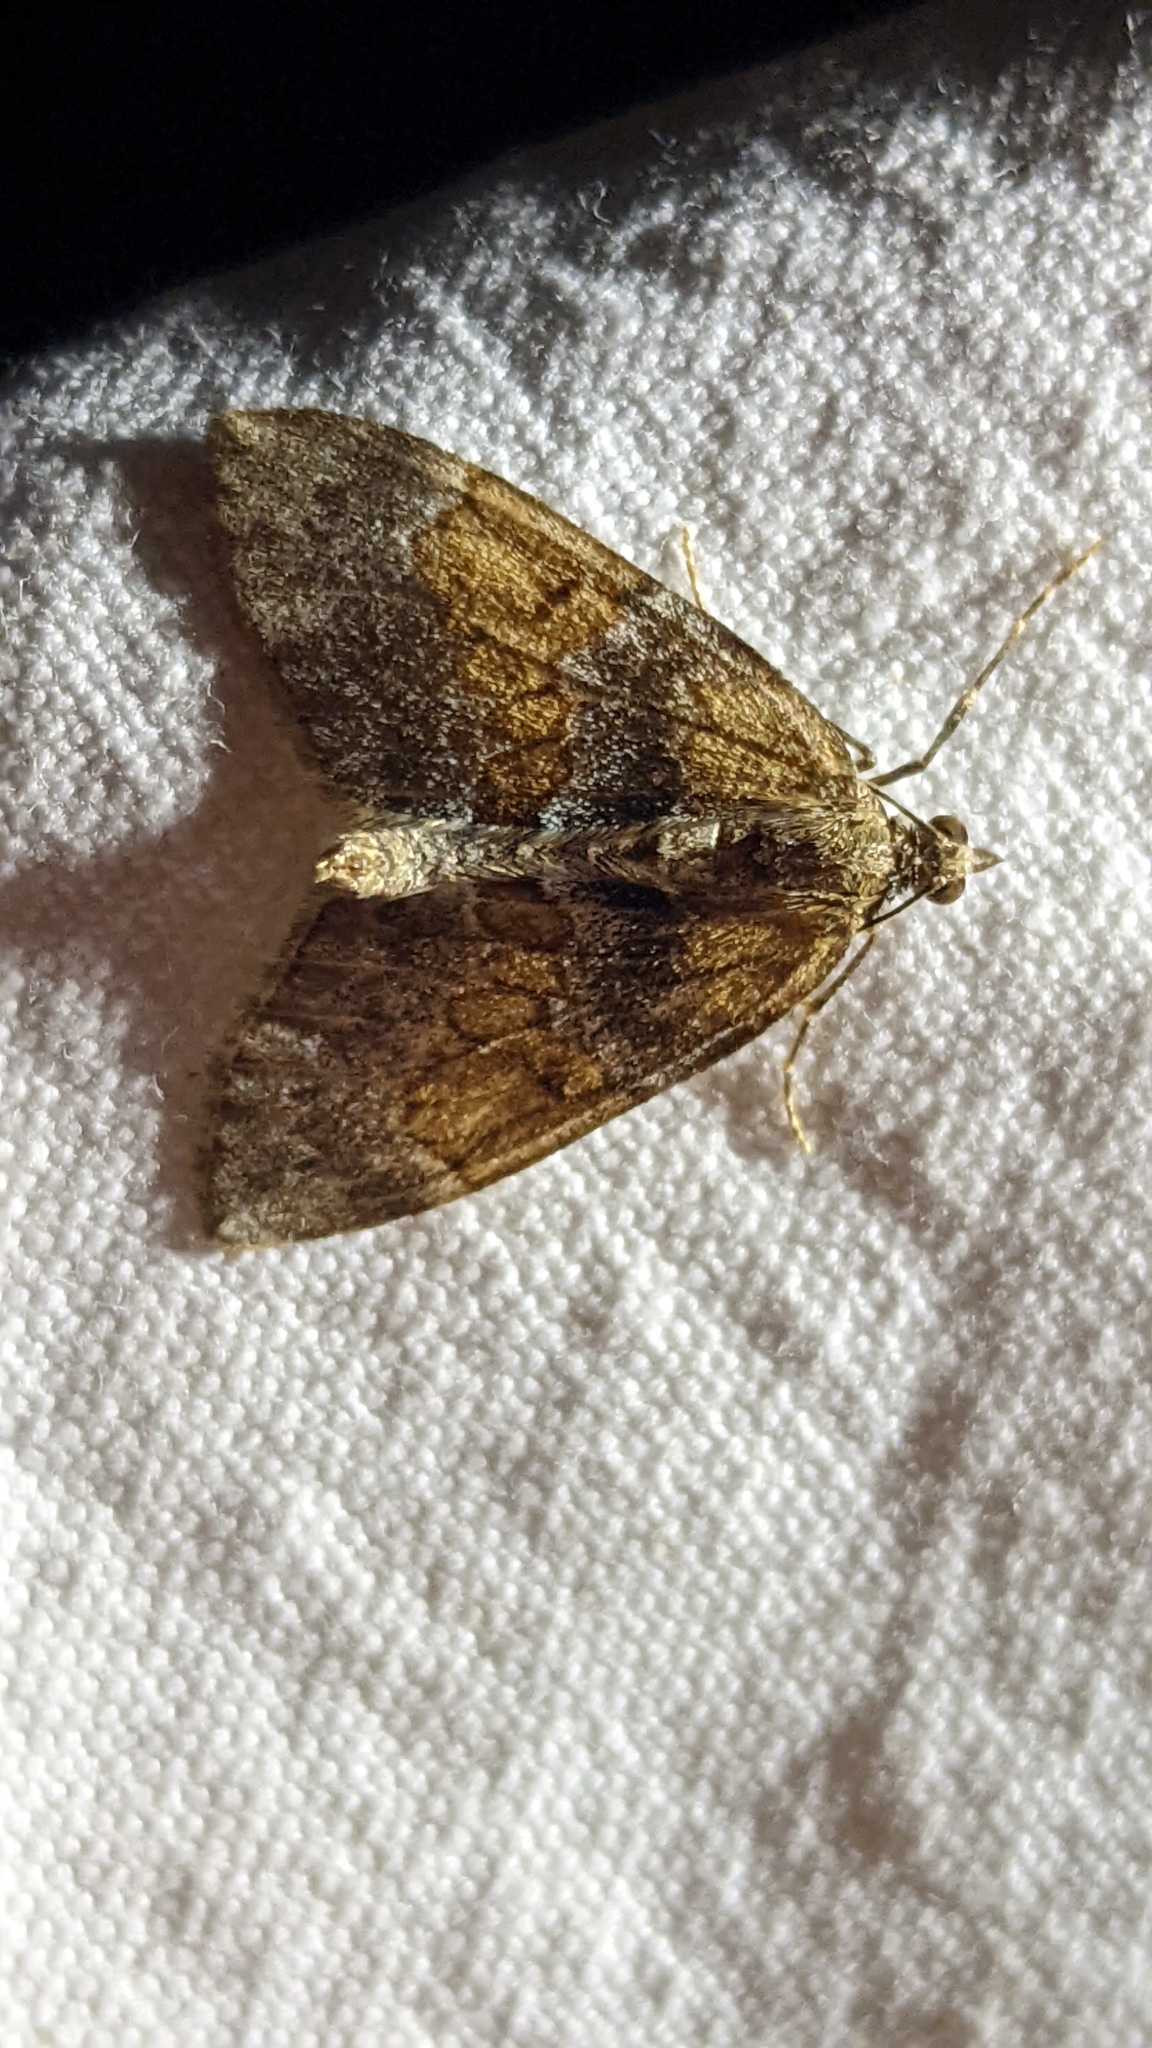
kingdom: Animalia
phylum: Arthropoda
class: Insecta
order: Lepidoptera
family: Geometridae
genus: Thera
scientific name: Thera obeliscata
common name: Grey pine carpet
